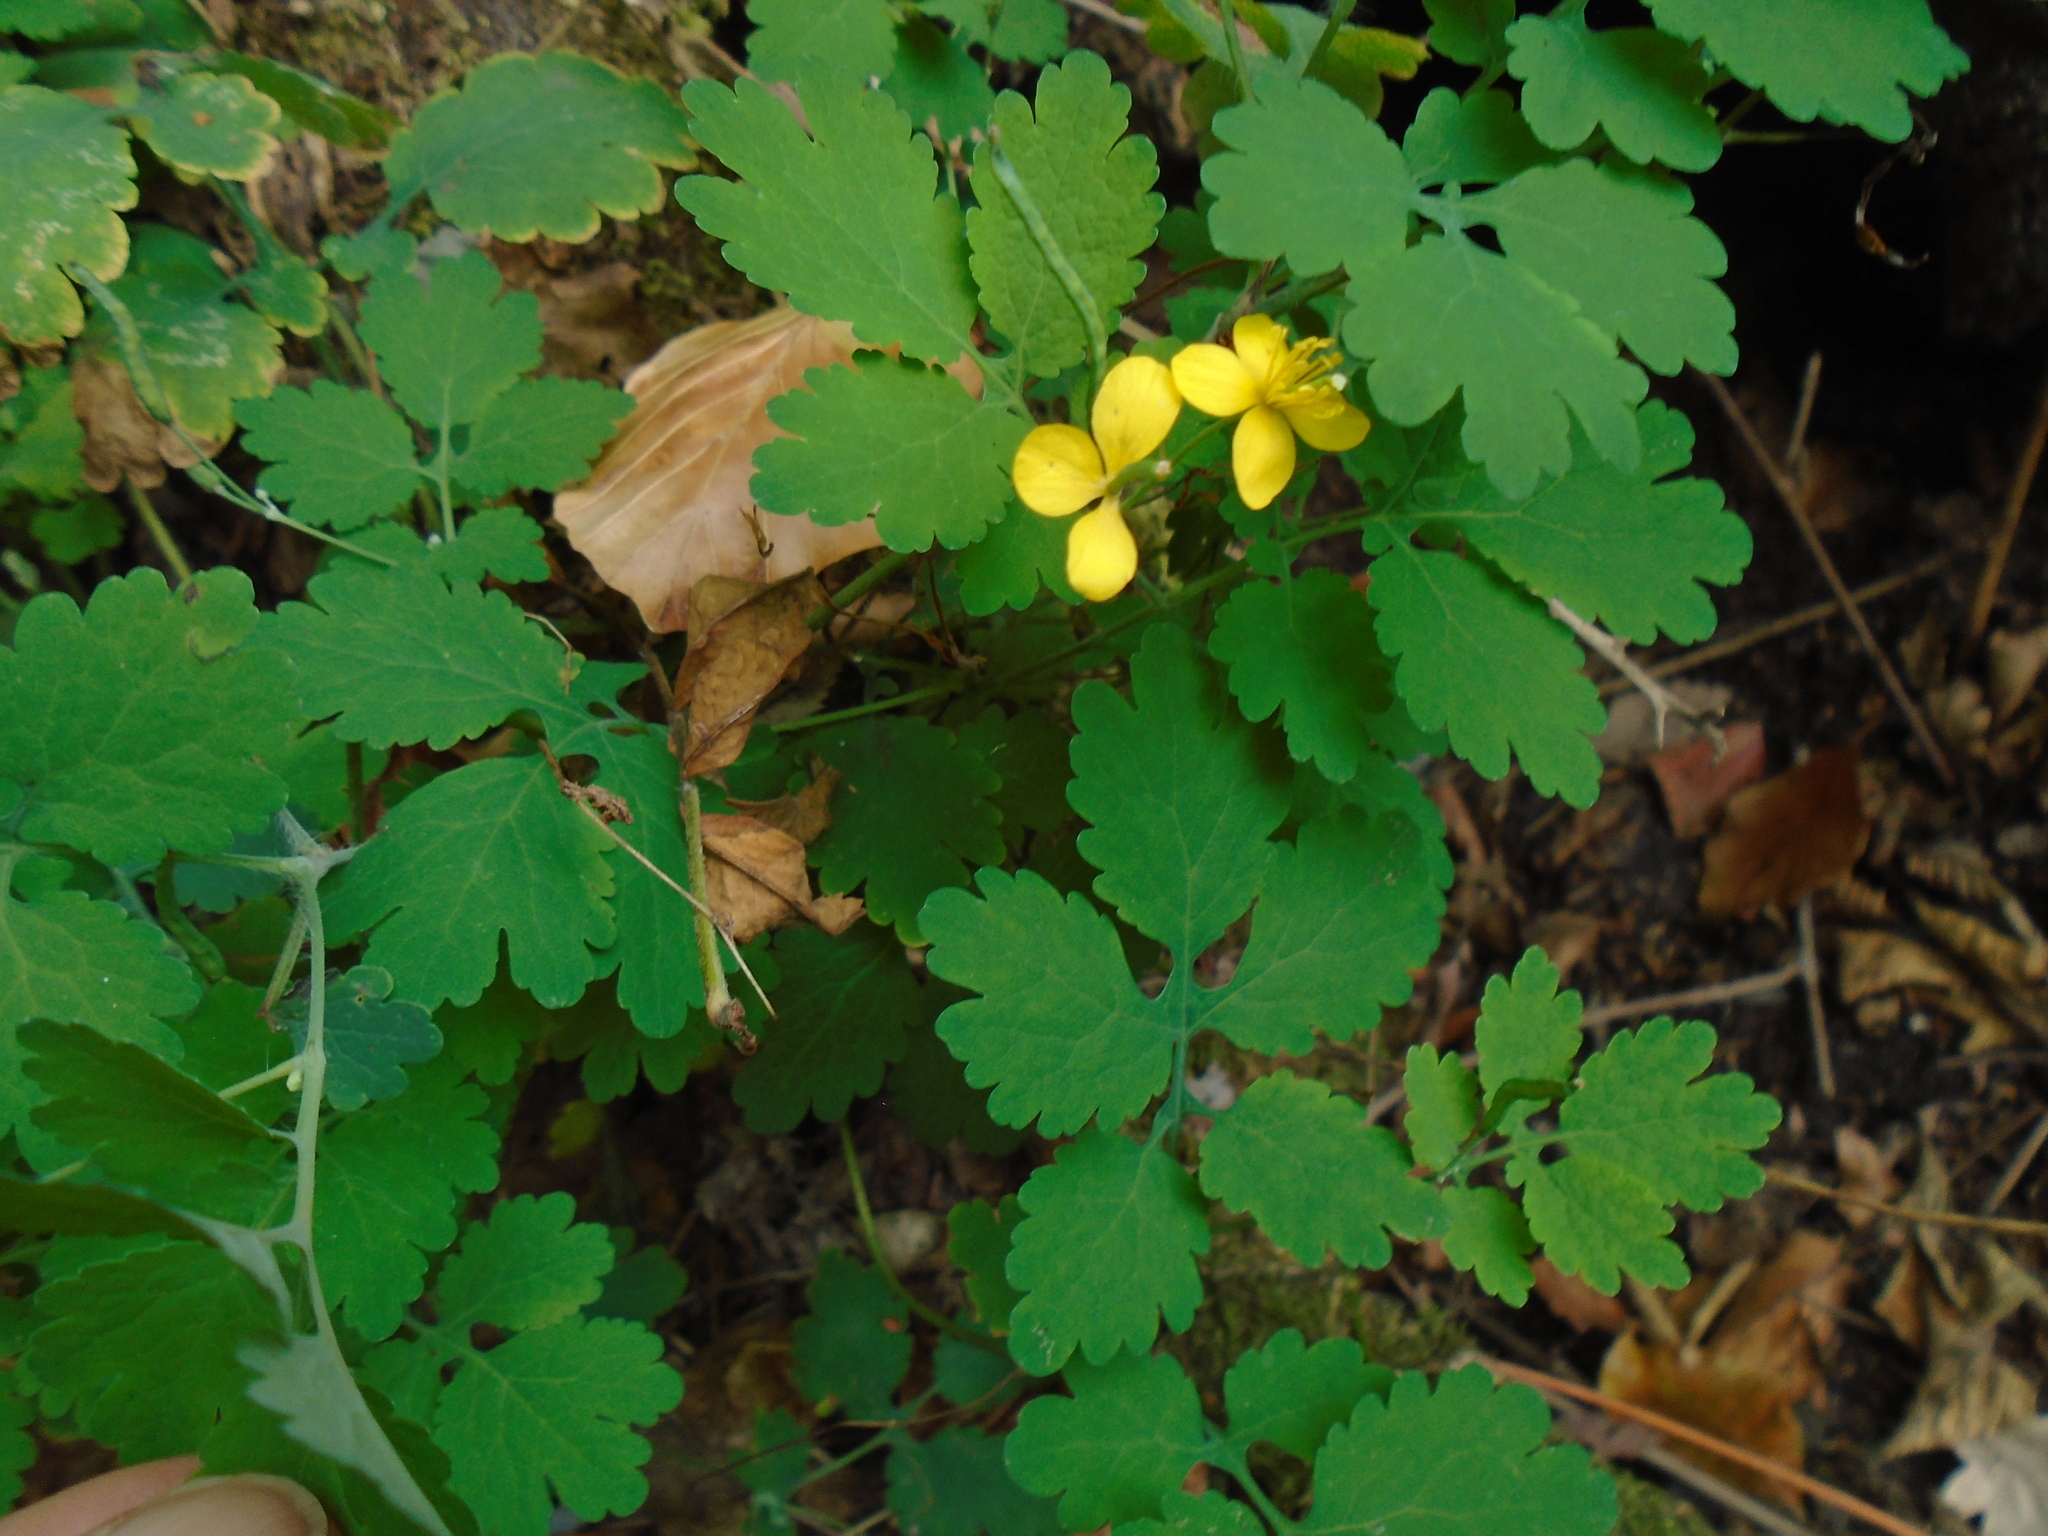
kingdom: Plantae
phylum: Tracheophyta
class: Magnoliopsida
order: Ranunculales
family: Papaveraceae
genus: Chelidonium
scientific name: Chelidonium majus
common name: Greater celandine
